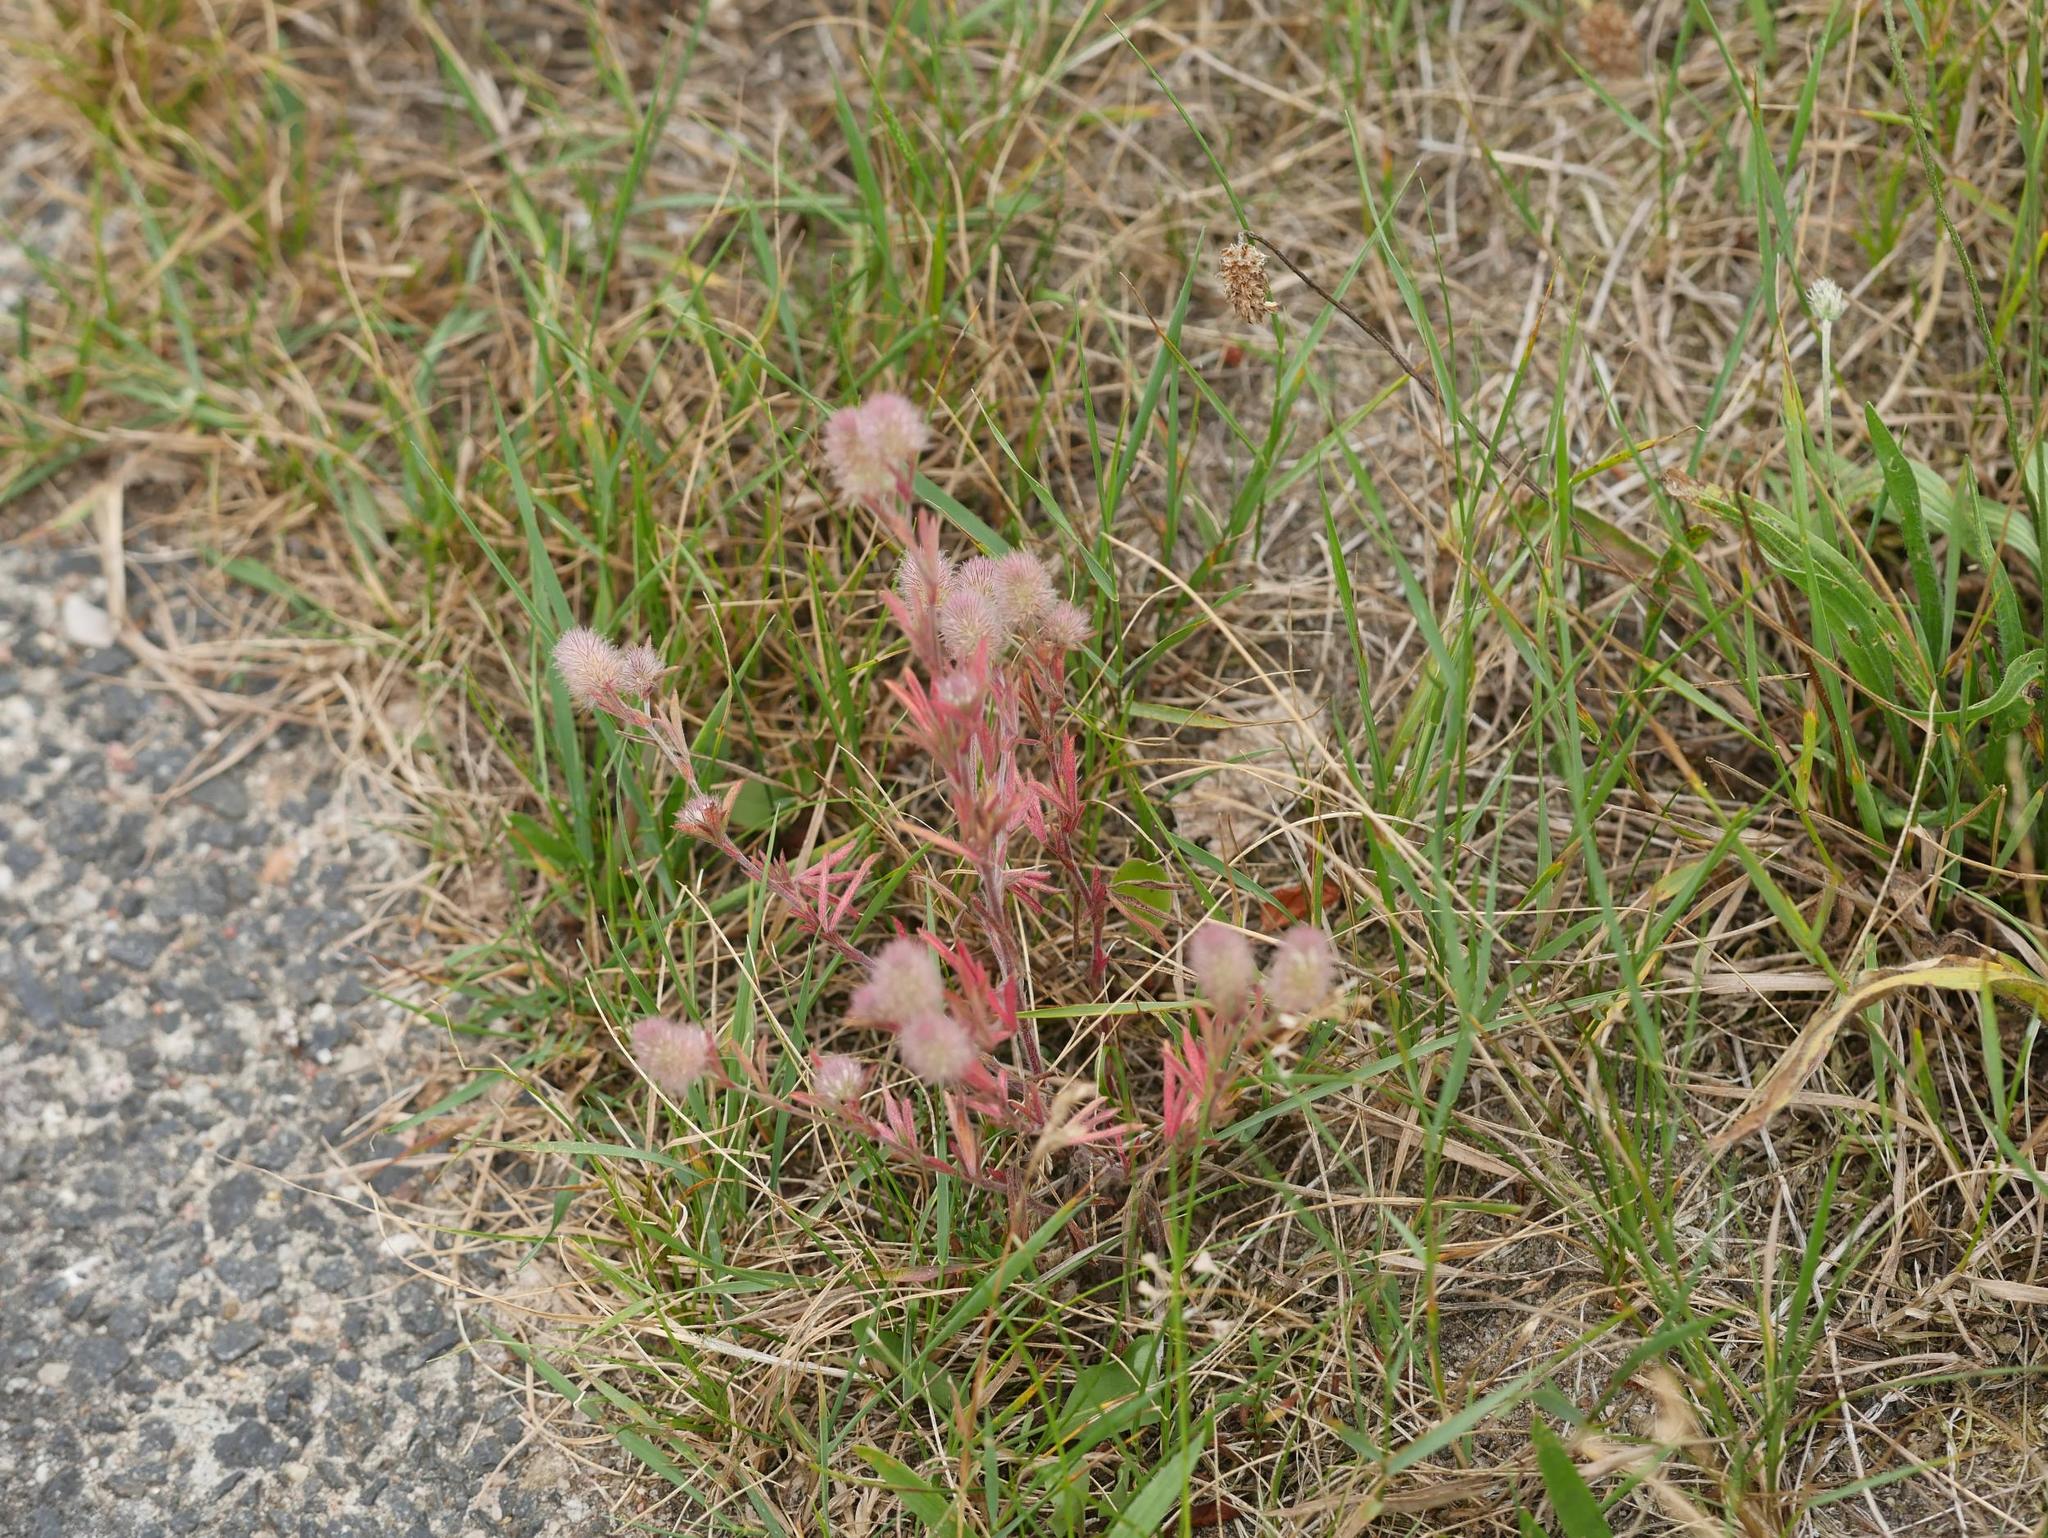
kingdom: Plantae
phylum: Tracheophyta
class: Magnoliopsida
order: Fabales
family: Fabaceae
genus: Trifolium
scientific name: Trifolium arvense
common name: Hare's-foot clover
